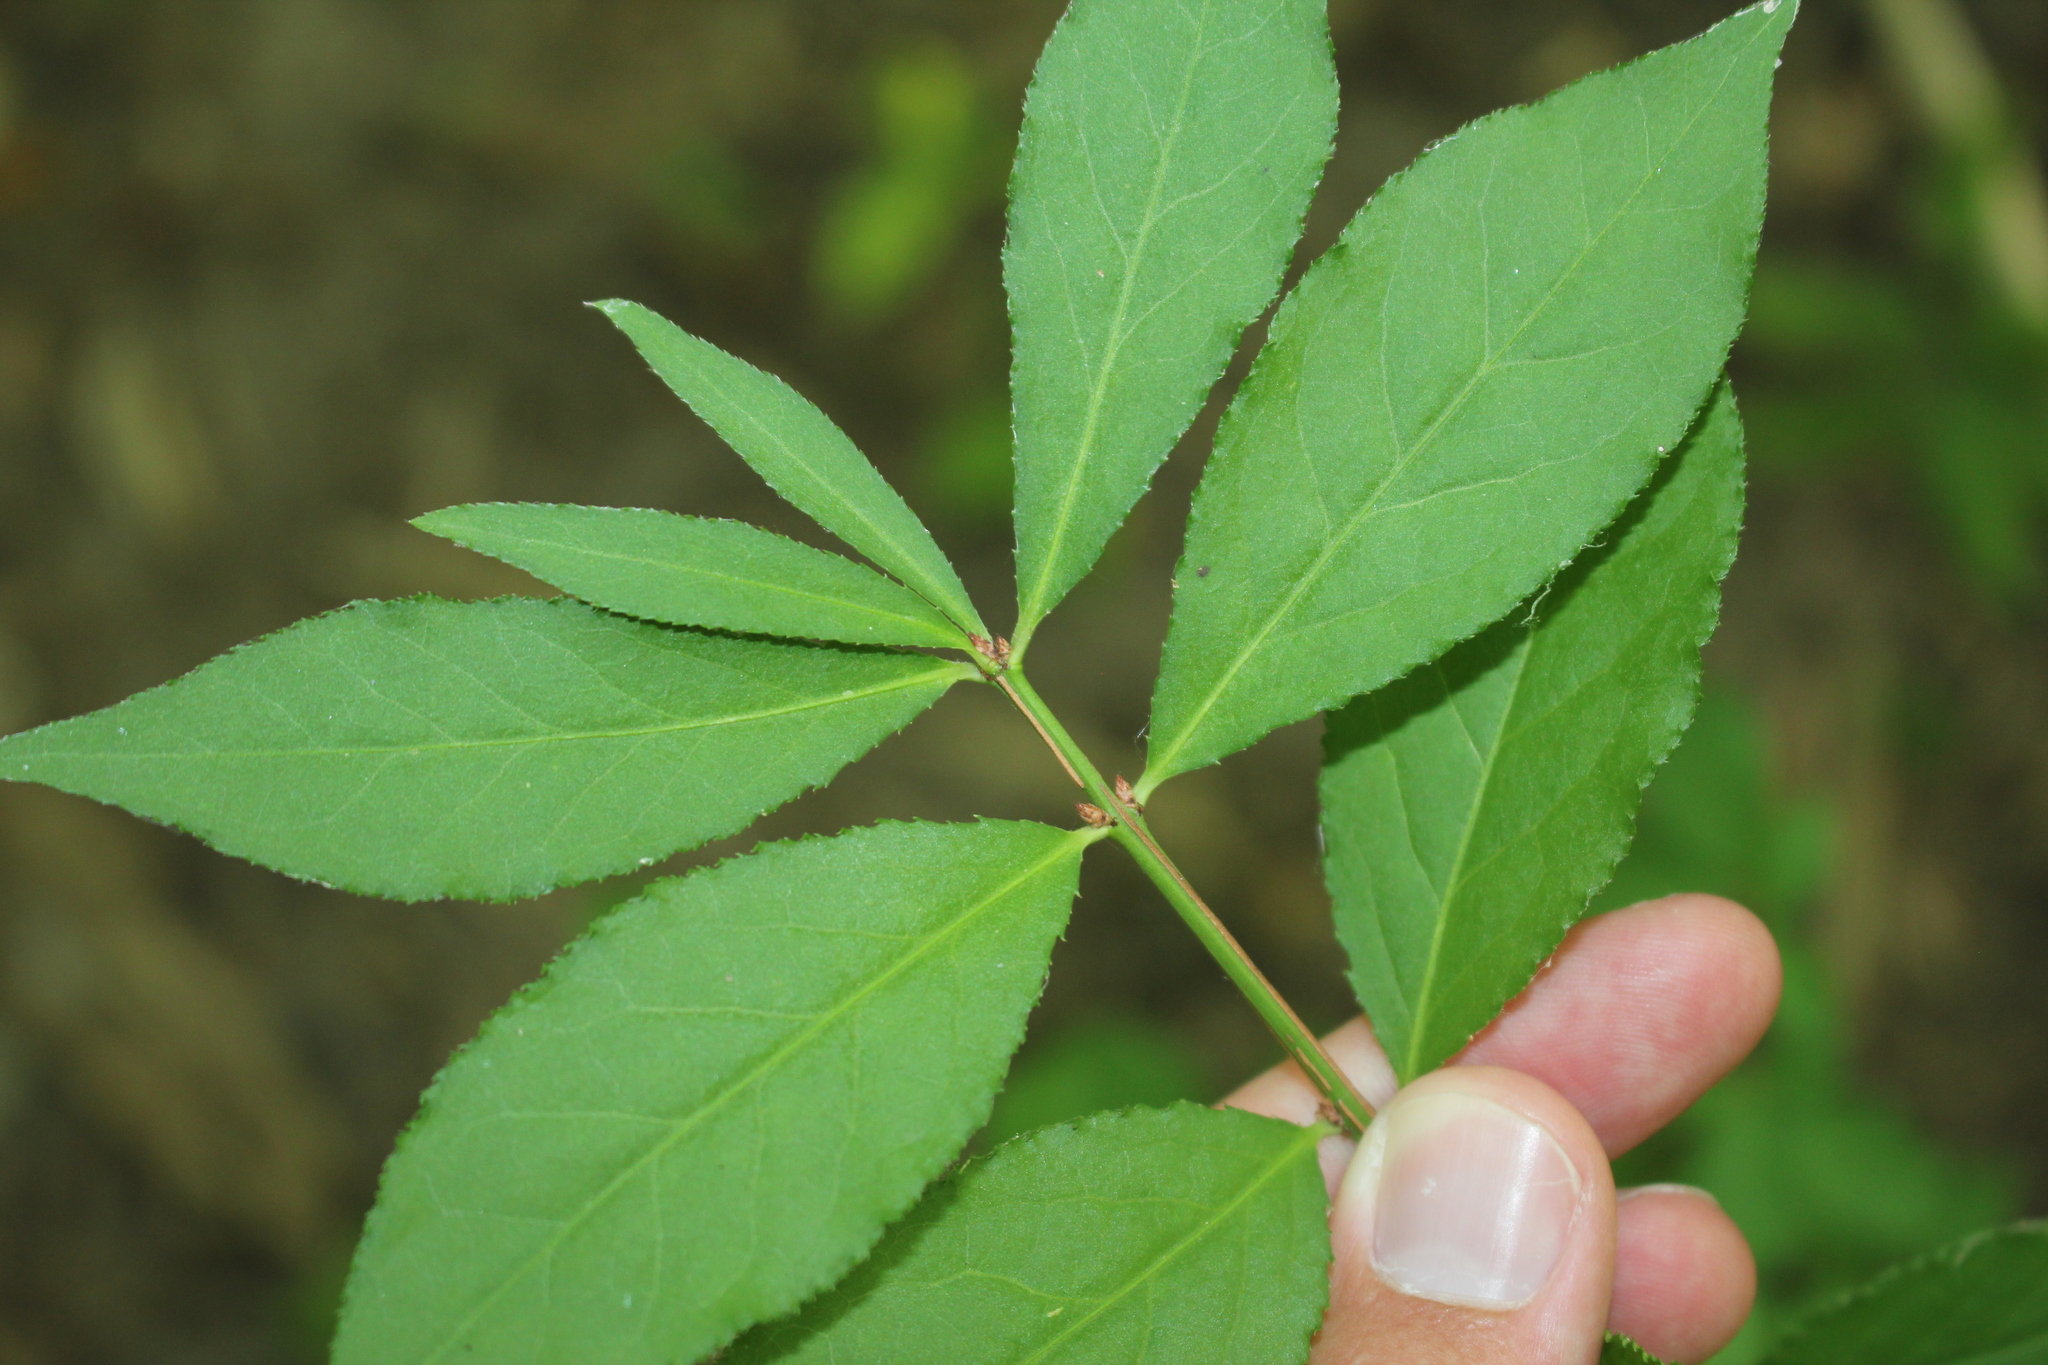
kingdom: Plantae
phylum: Tracheophyta
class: Magnoliopsida
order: Celastrales
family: Celastraceae
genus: Euonymus
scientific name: Euonymus alatus
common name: Winged euonymus
